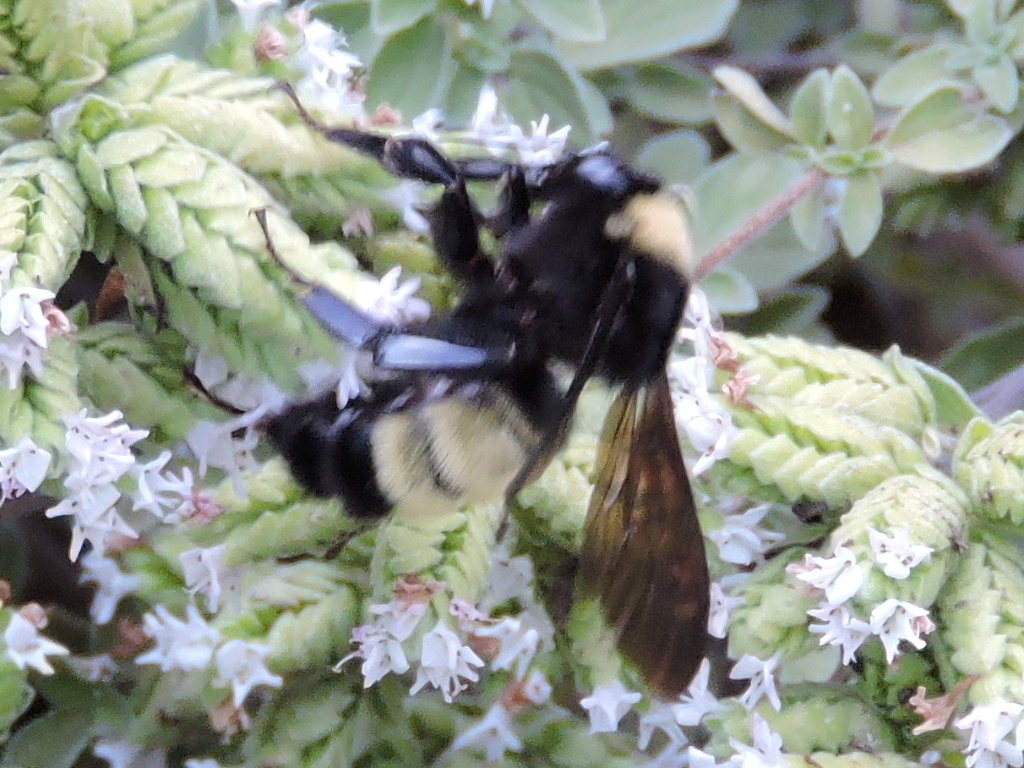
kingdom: Animalia
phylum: Arthropoda
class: Insecta
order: Hymenoptera
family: Apidae
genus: Bombus
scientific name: Bombus pensylvanicus
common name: Bumble bee
